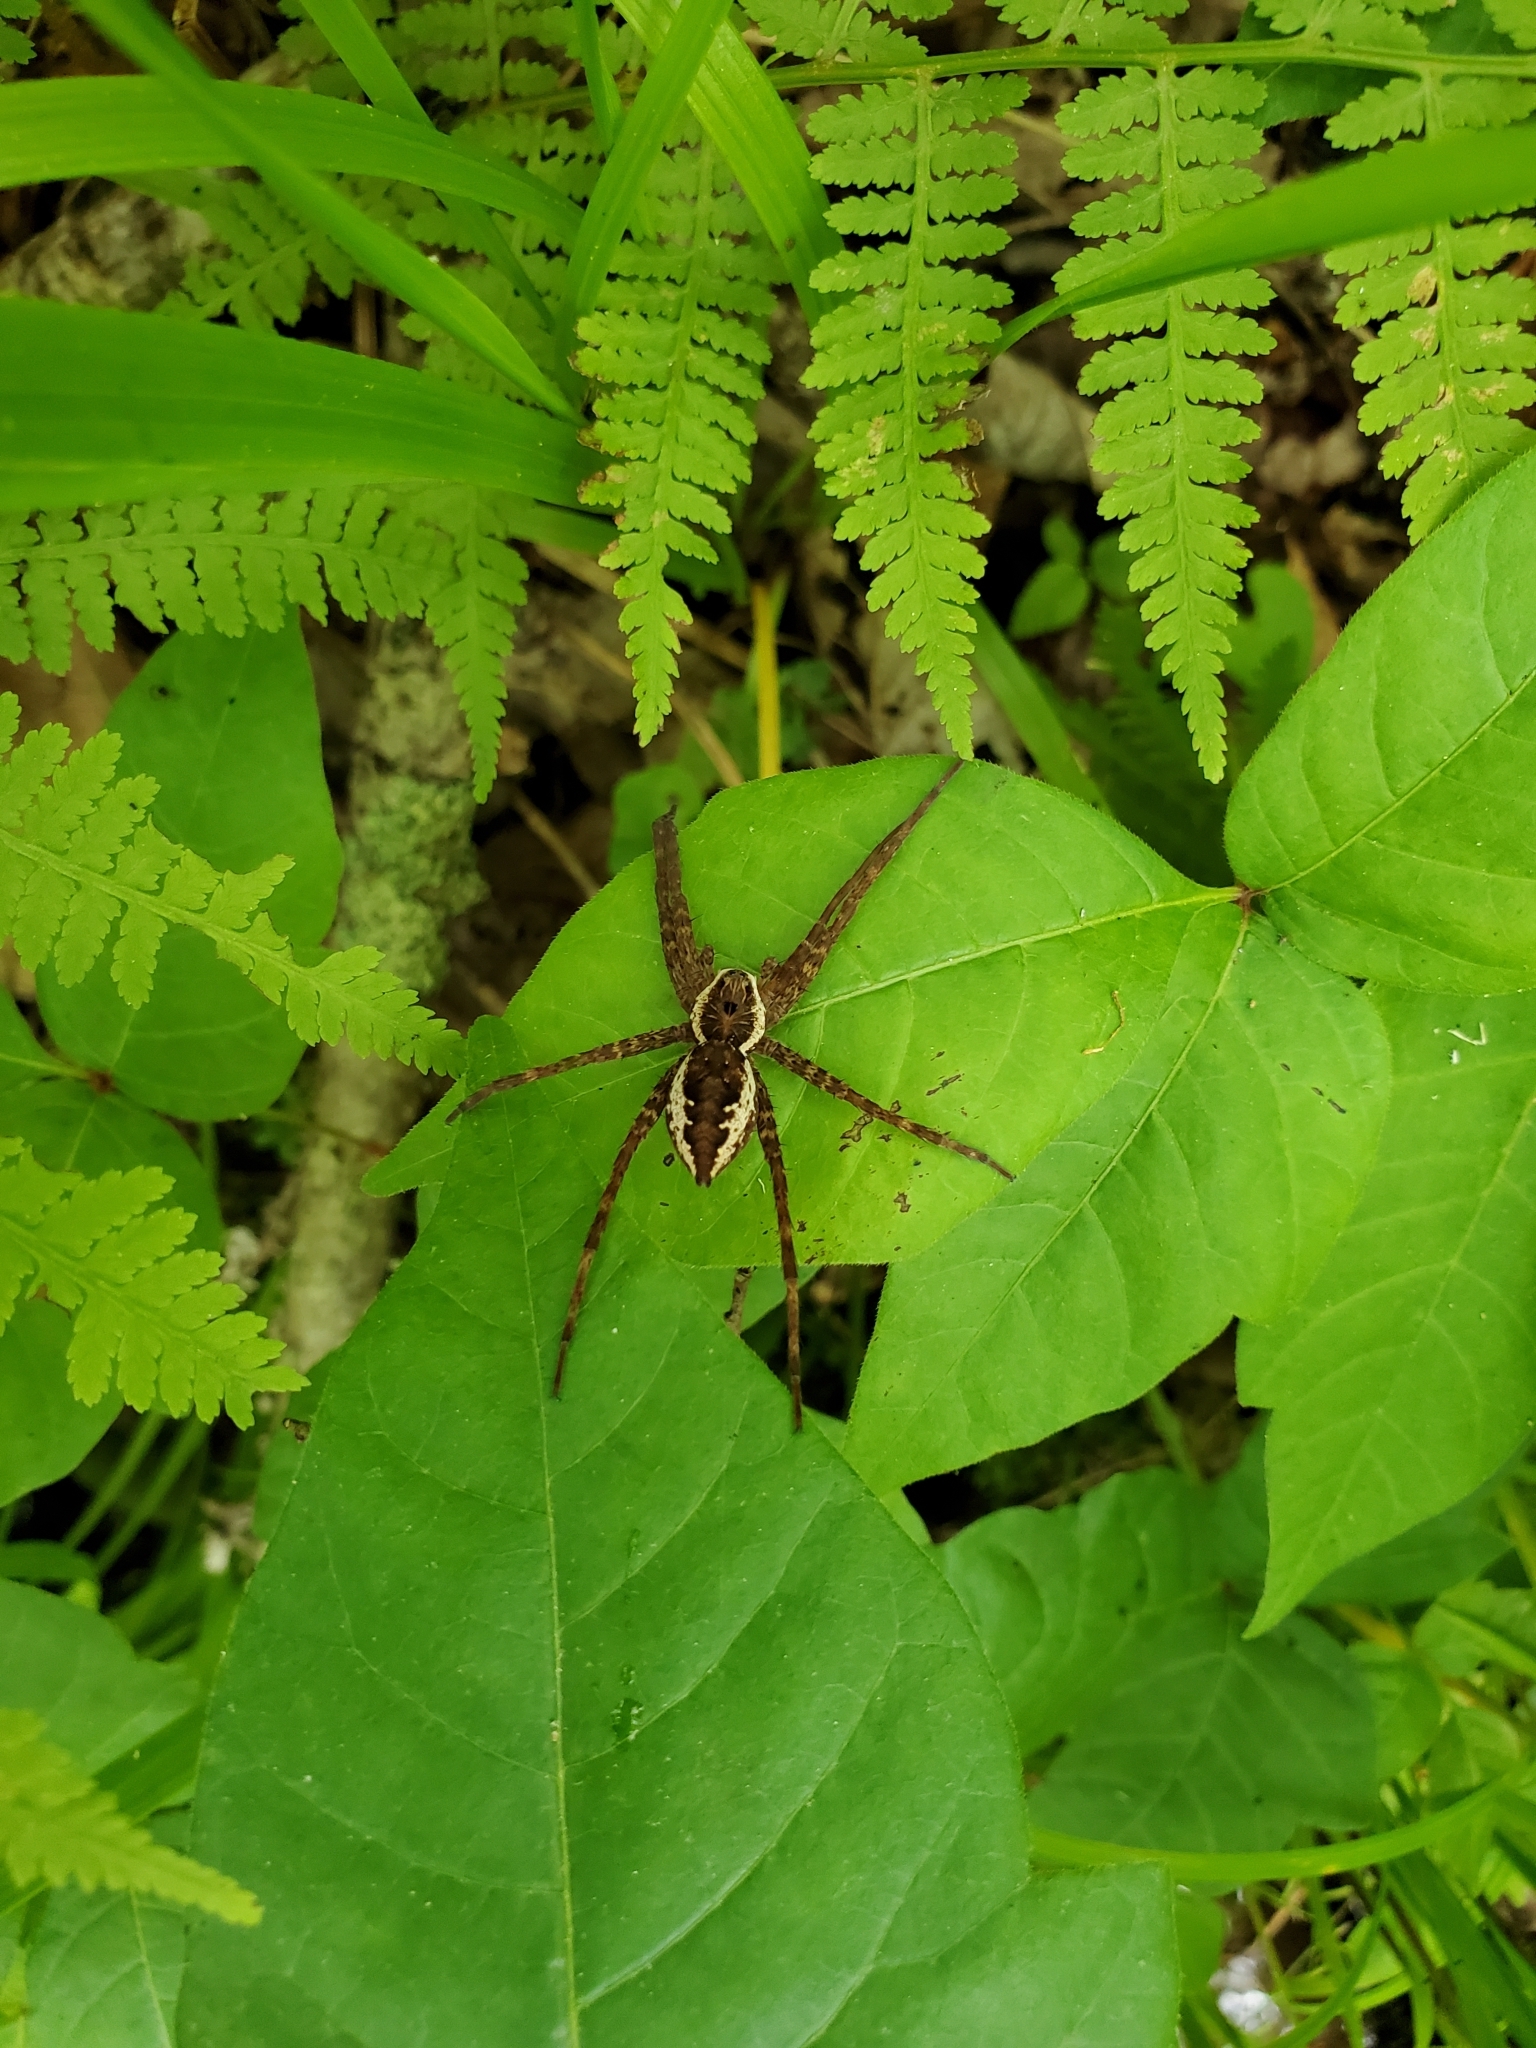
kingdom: Animalia
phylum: Arthropoda
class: Arachnida
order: Araneae
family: Pisauridae
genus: Dolomedes
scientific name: Dolomedes vittatus
